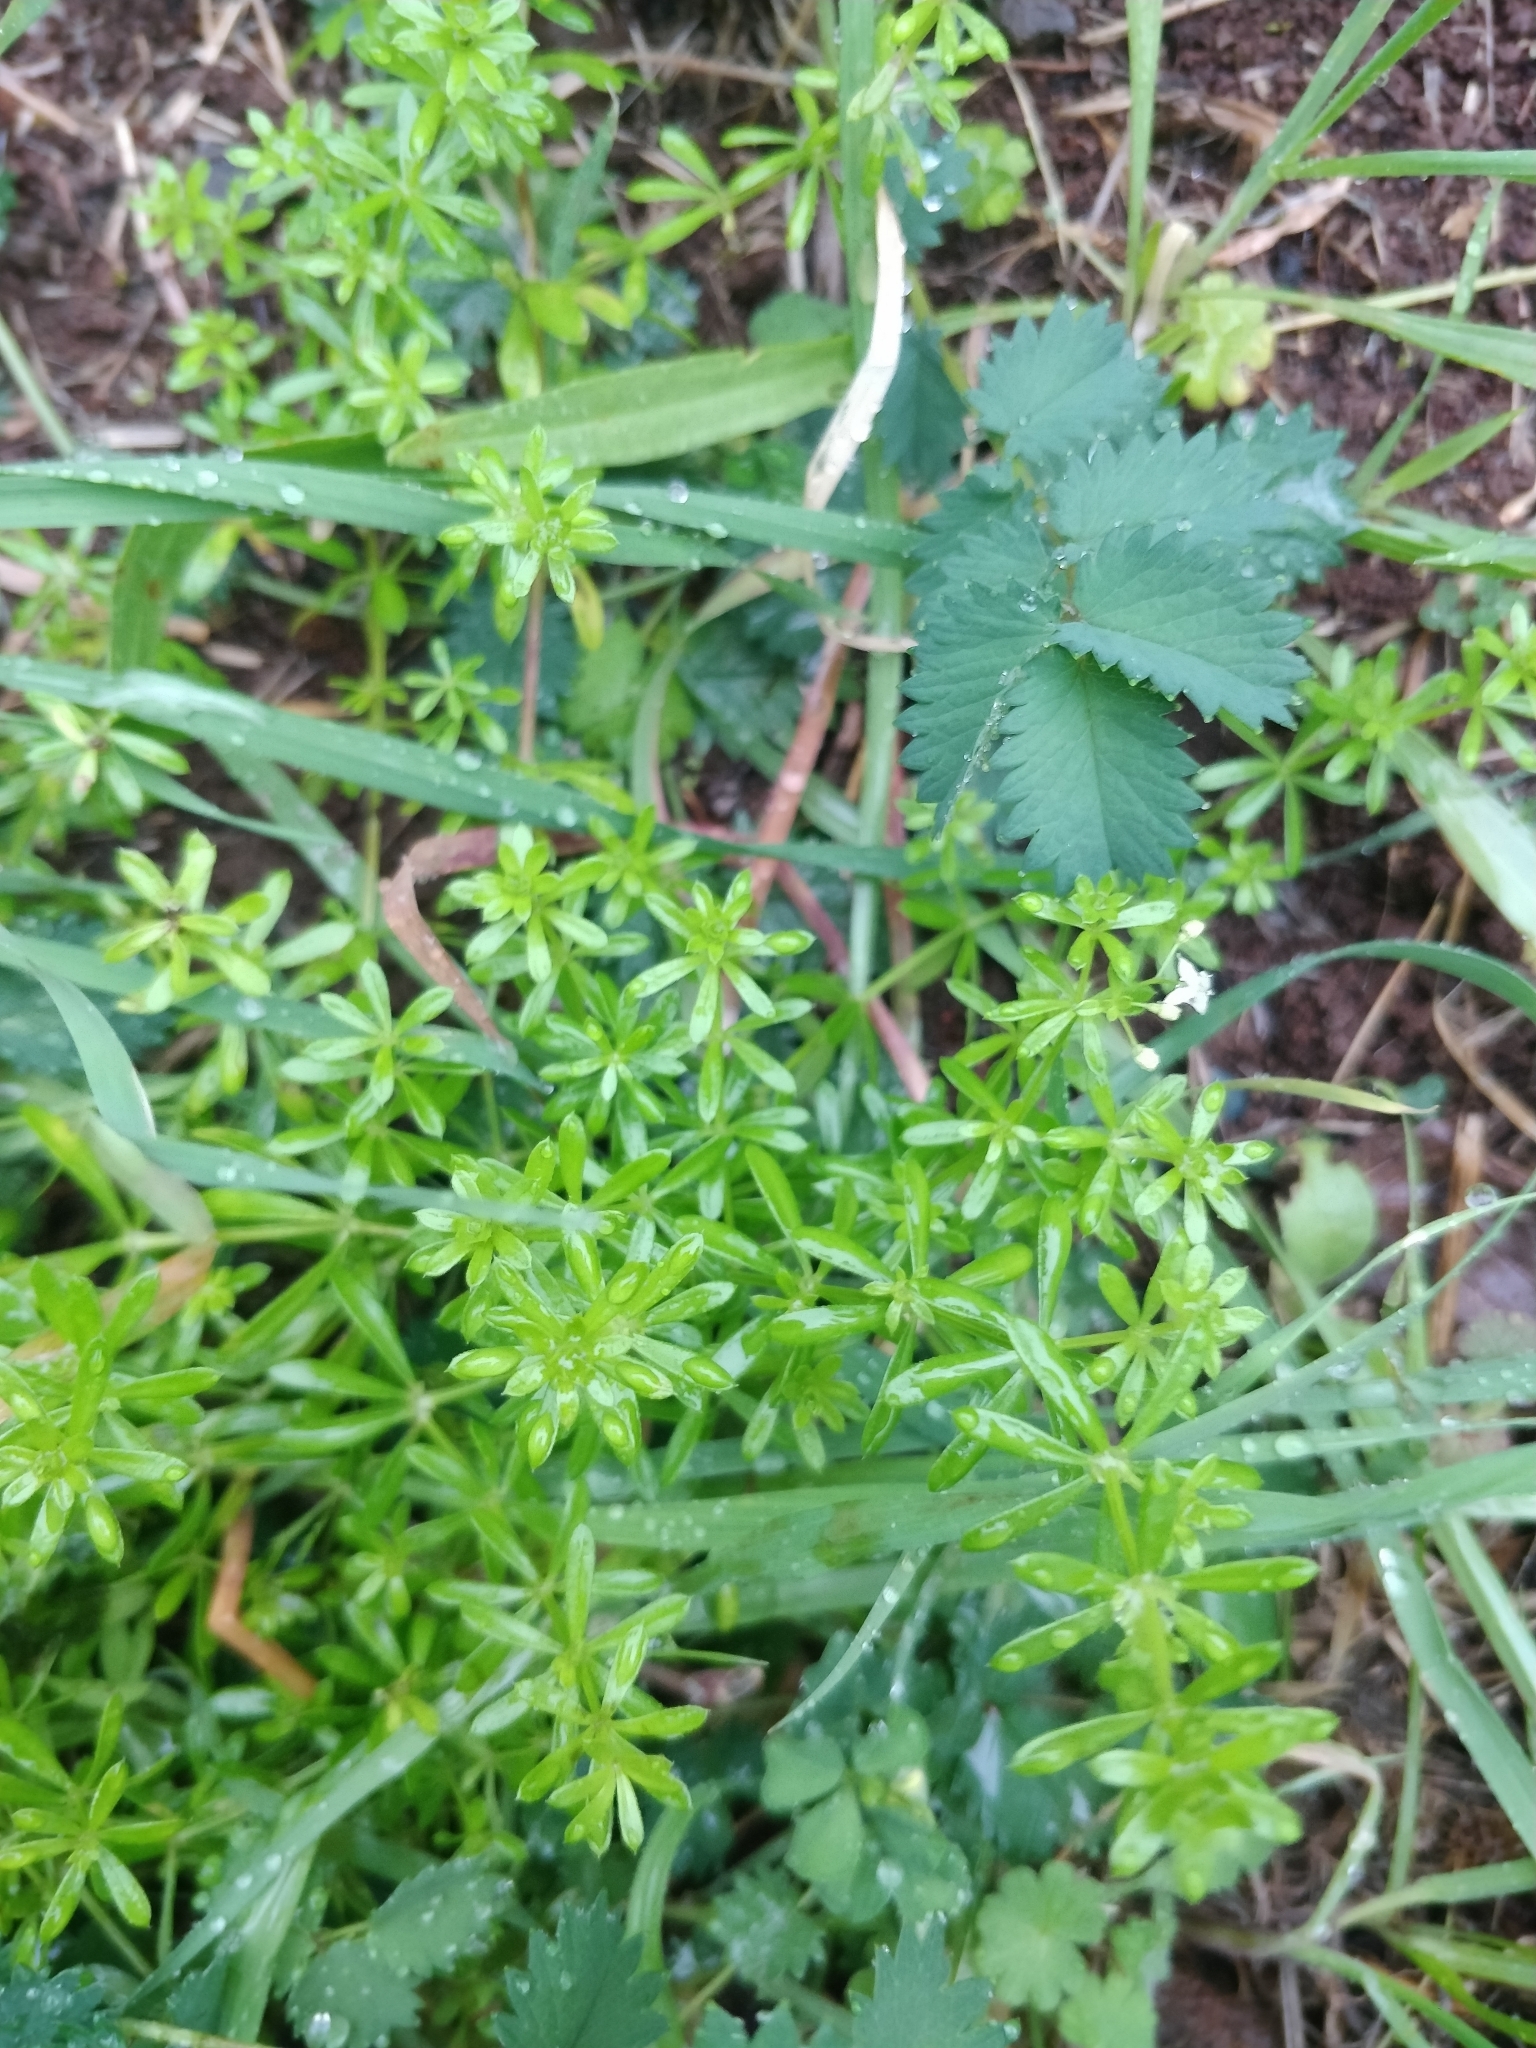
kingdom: Plantae
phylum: Tracheophyta
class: Magnoliopsida
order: Gentianales
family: Rubiaceae
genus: Rubia
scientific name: Rubia occidens
